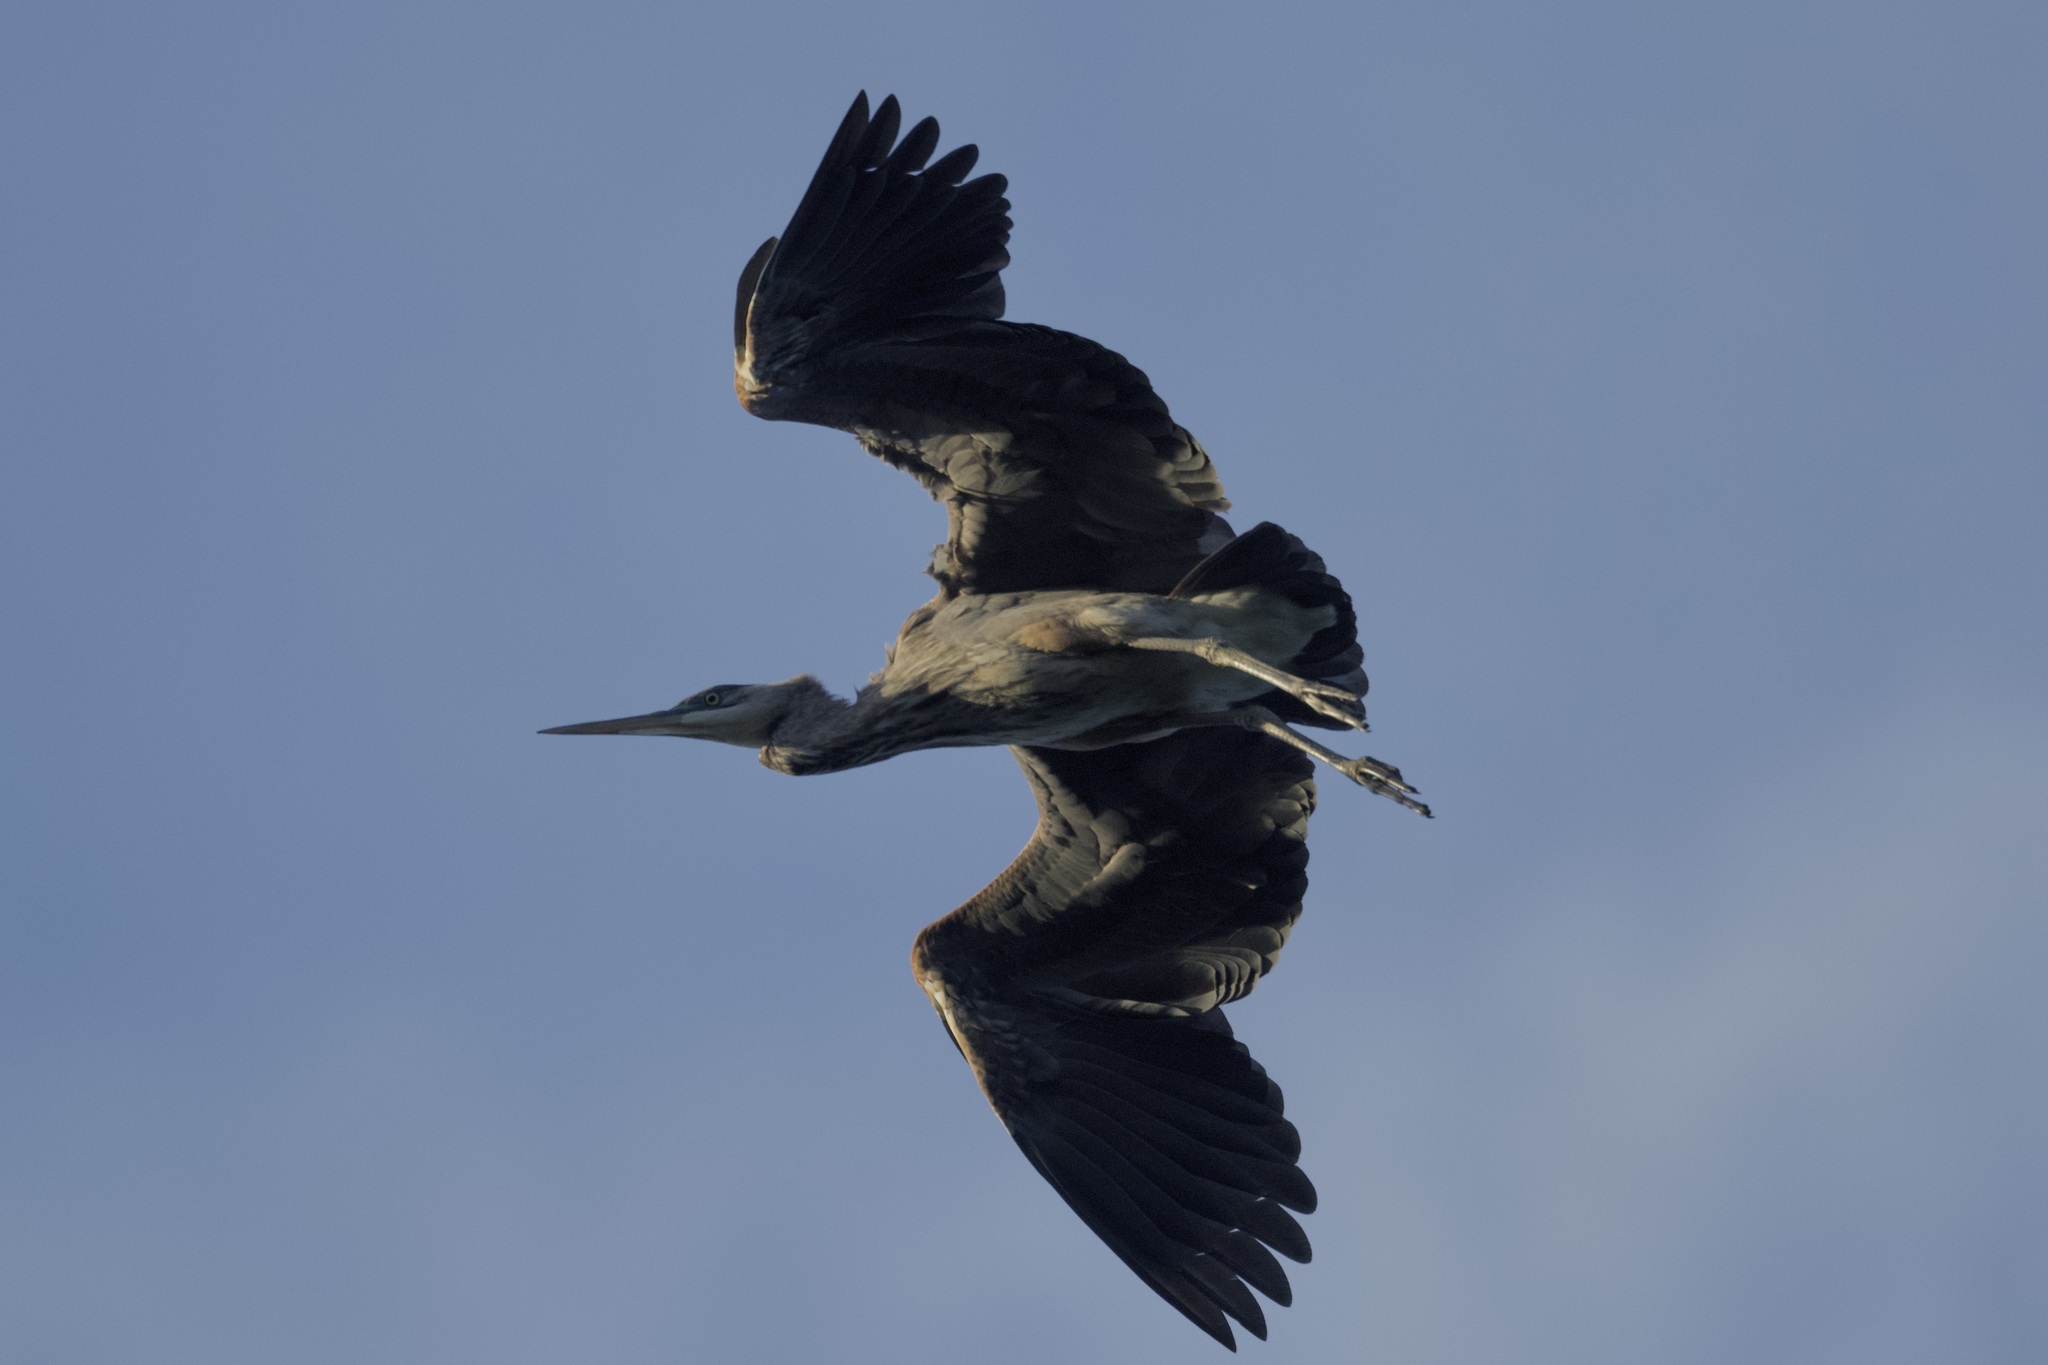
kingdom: Animalia
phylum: Chordata
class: Aves
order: Pelecaniformes
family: Ardeidae
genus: Ardea
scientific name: Ardea herodias
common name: Great blue heron
